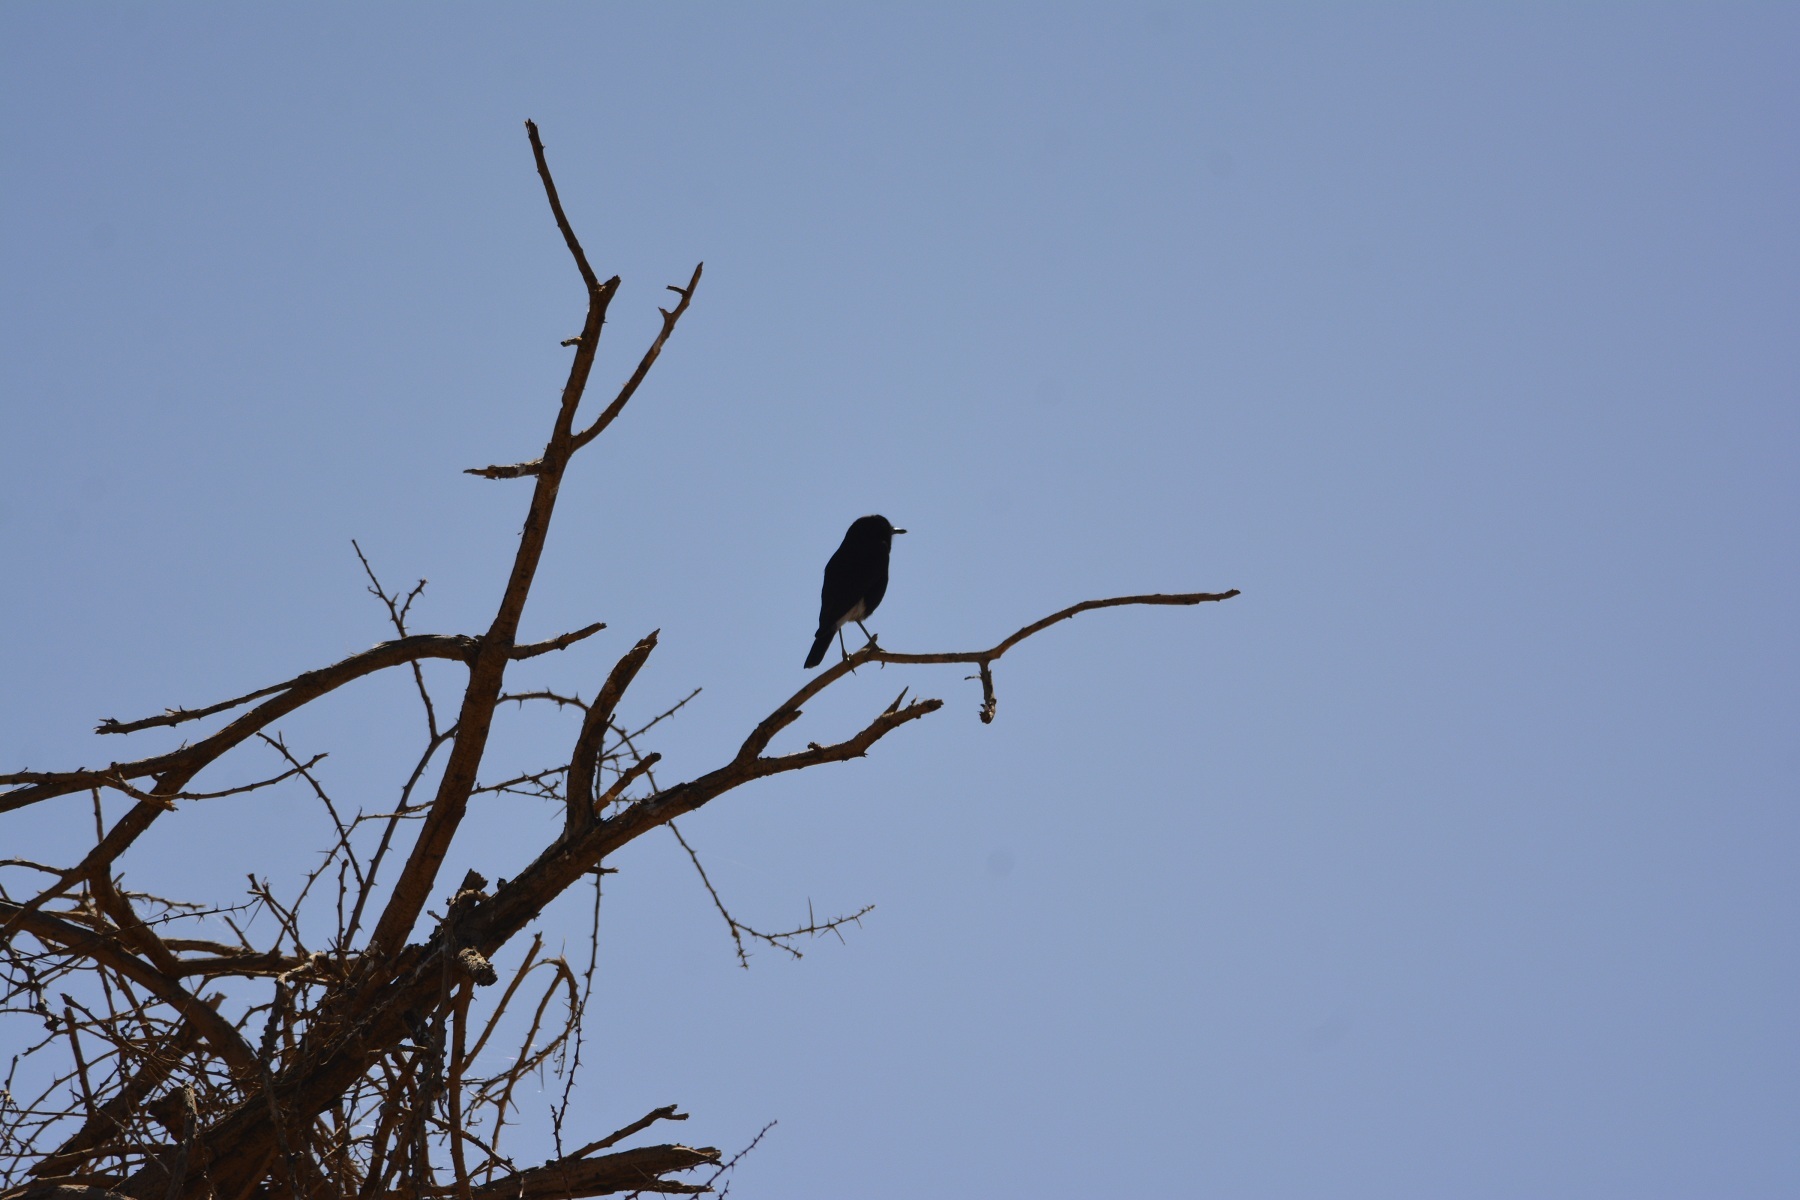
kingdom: Animalia
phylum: Chordata
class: Aves
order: Passeriformes
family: Muscicapidae
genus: Oenanthe
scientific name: Oenanthe leucopyga
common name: White-crowned wheatear
